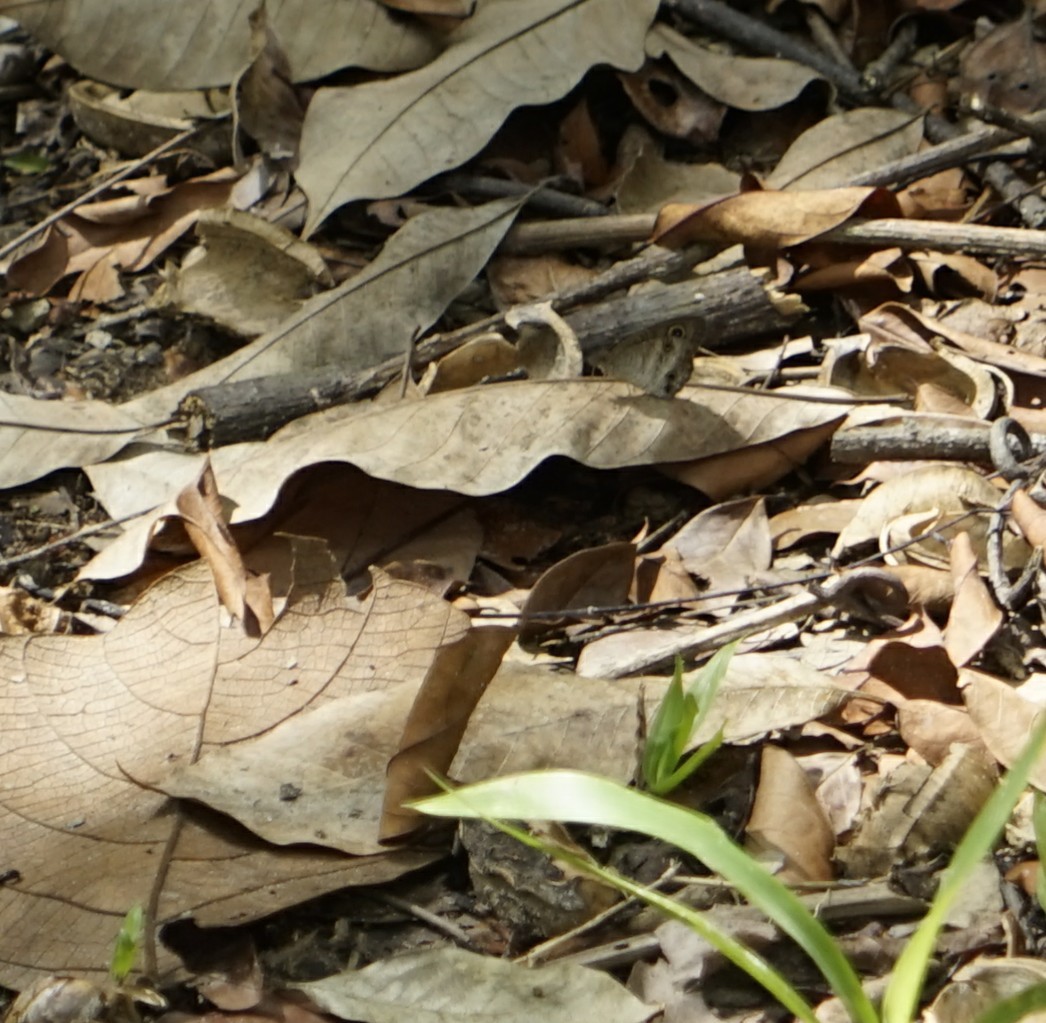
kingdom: Animalia
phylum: Arthropoda
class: Insecta
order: Lepidoptera
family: Nymphalidae
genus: Ypthima
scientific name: Ypthima pandocus
